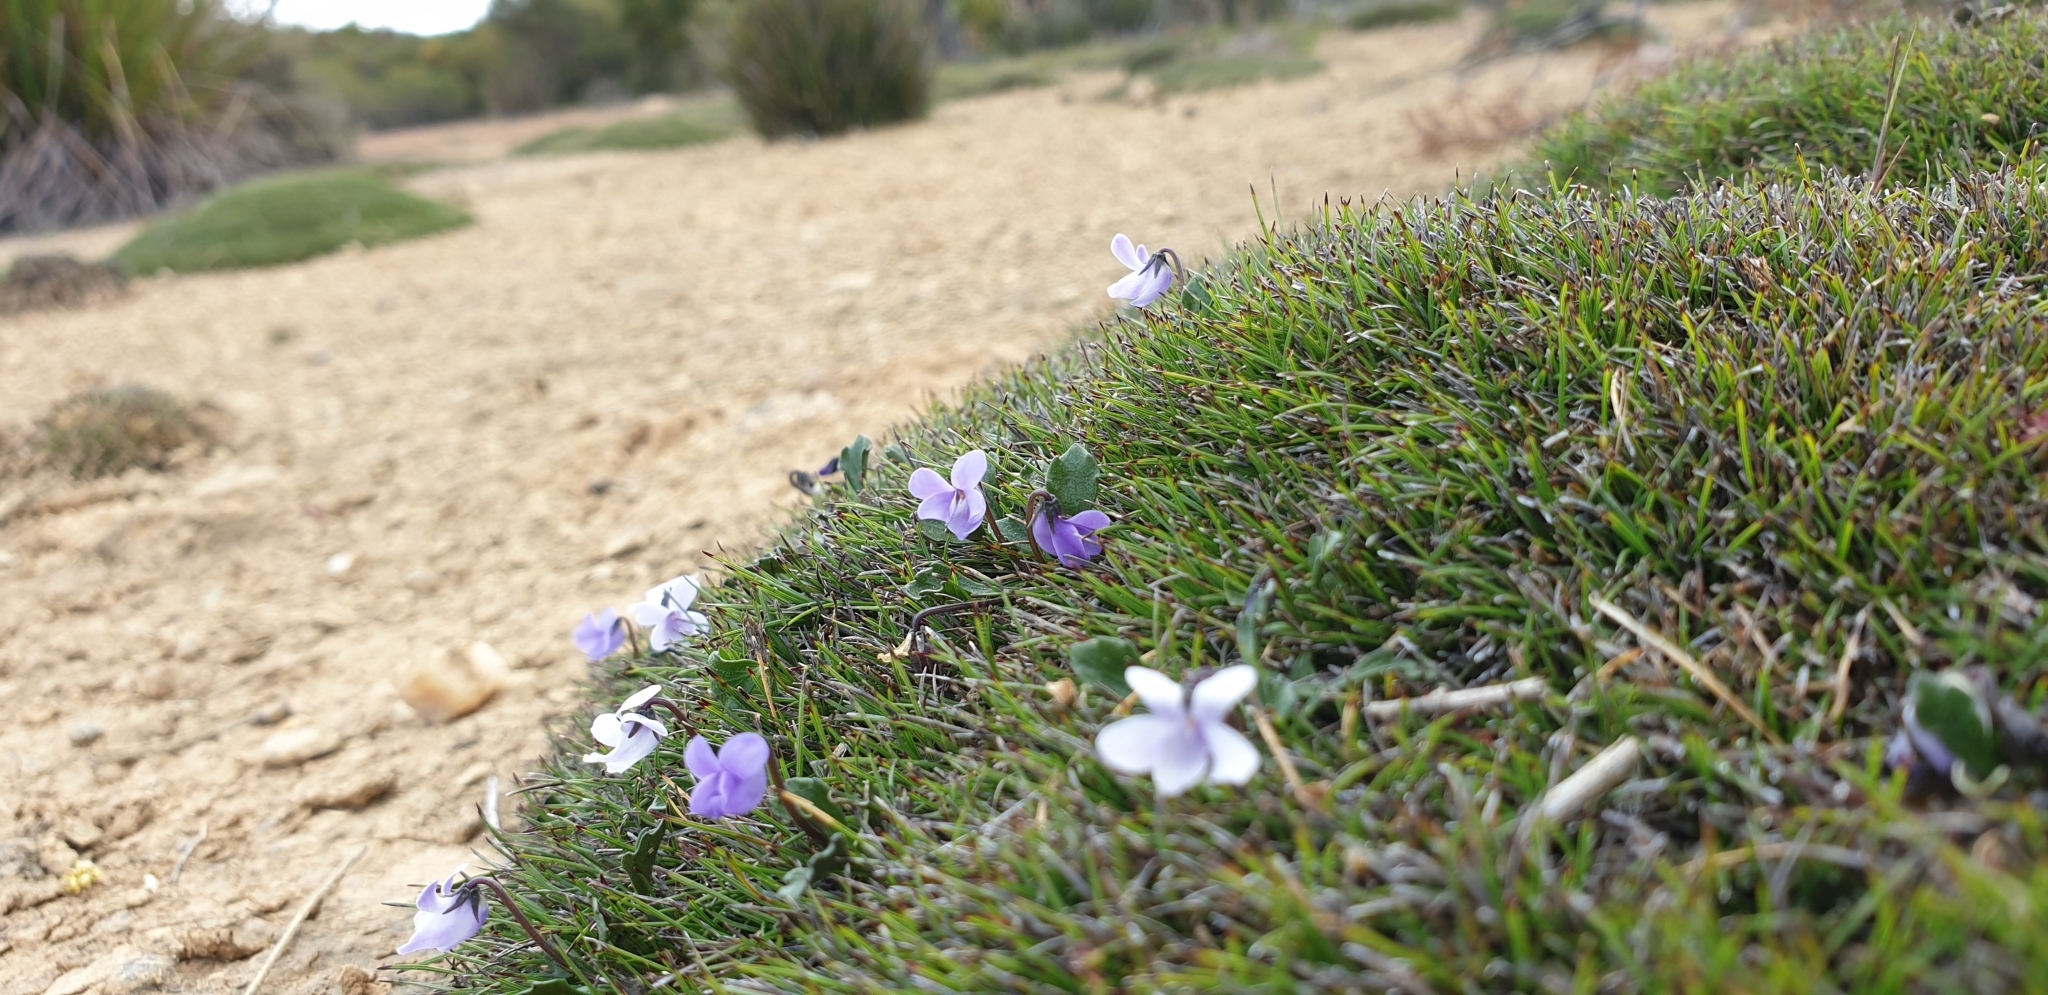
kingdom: Plantae
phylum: Tracheophyta
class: Magnoliopsida
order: Malpighiales
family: Violaceae
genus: Viola
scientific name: Viola sieberiana
